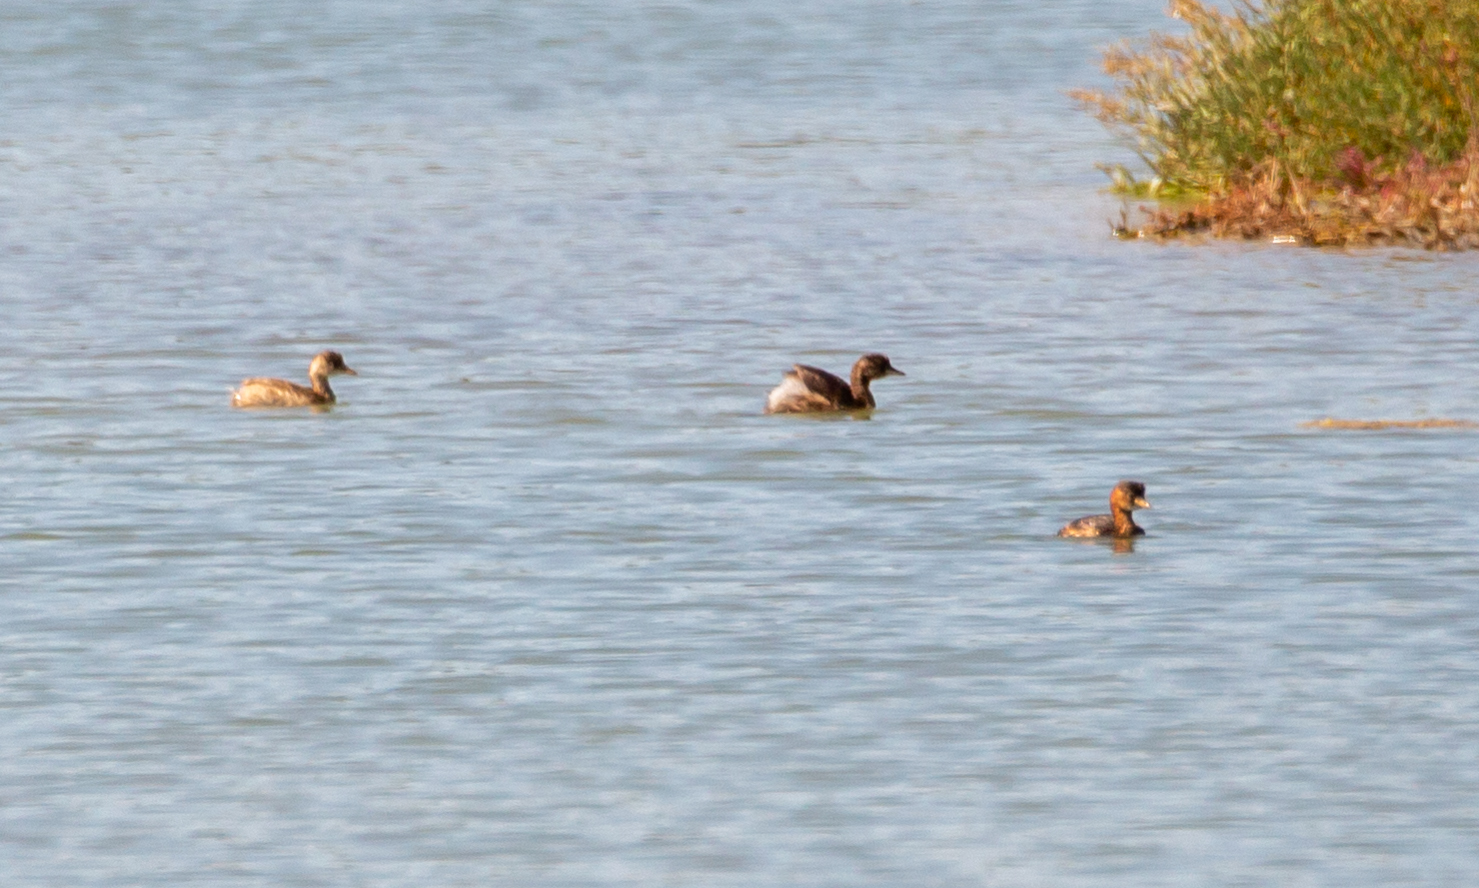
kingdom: Animalia
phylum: Chordata
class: Aves
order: Podicipediformes
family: Podicipedidae
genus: Tachybaptus
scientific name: Tachybaptus ruficollis
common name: Little grebe
